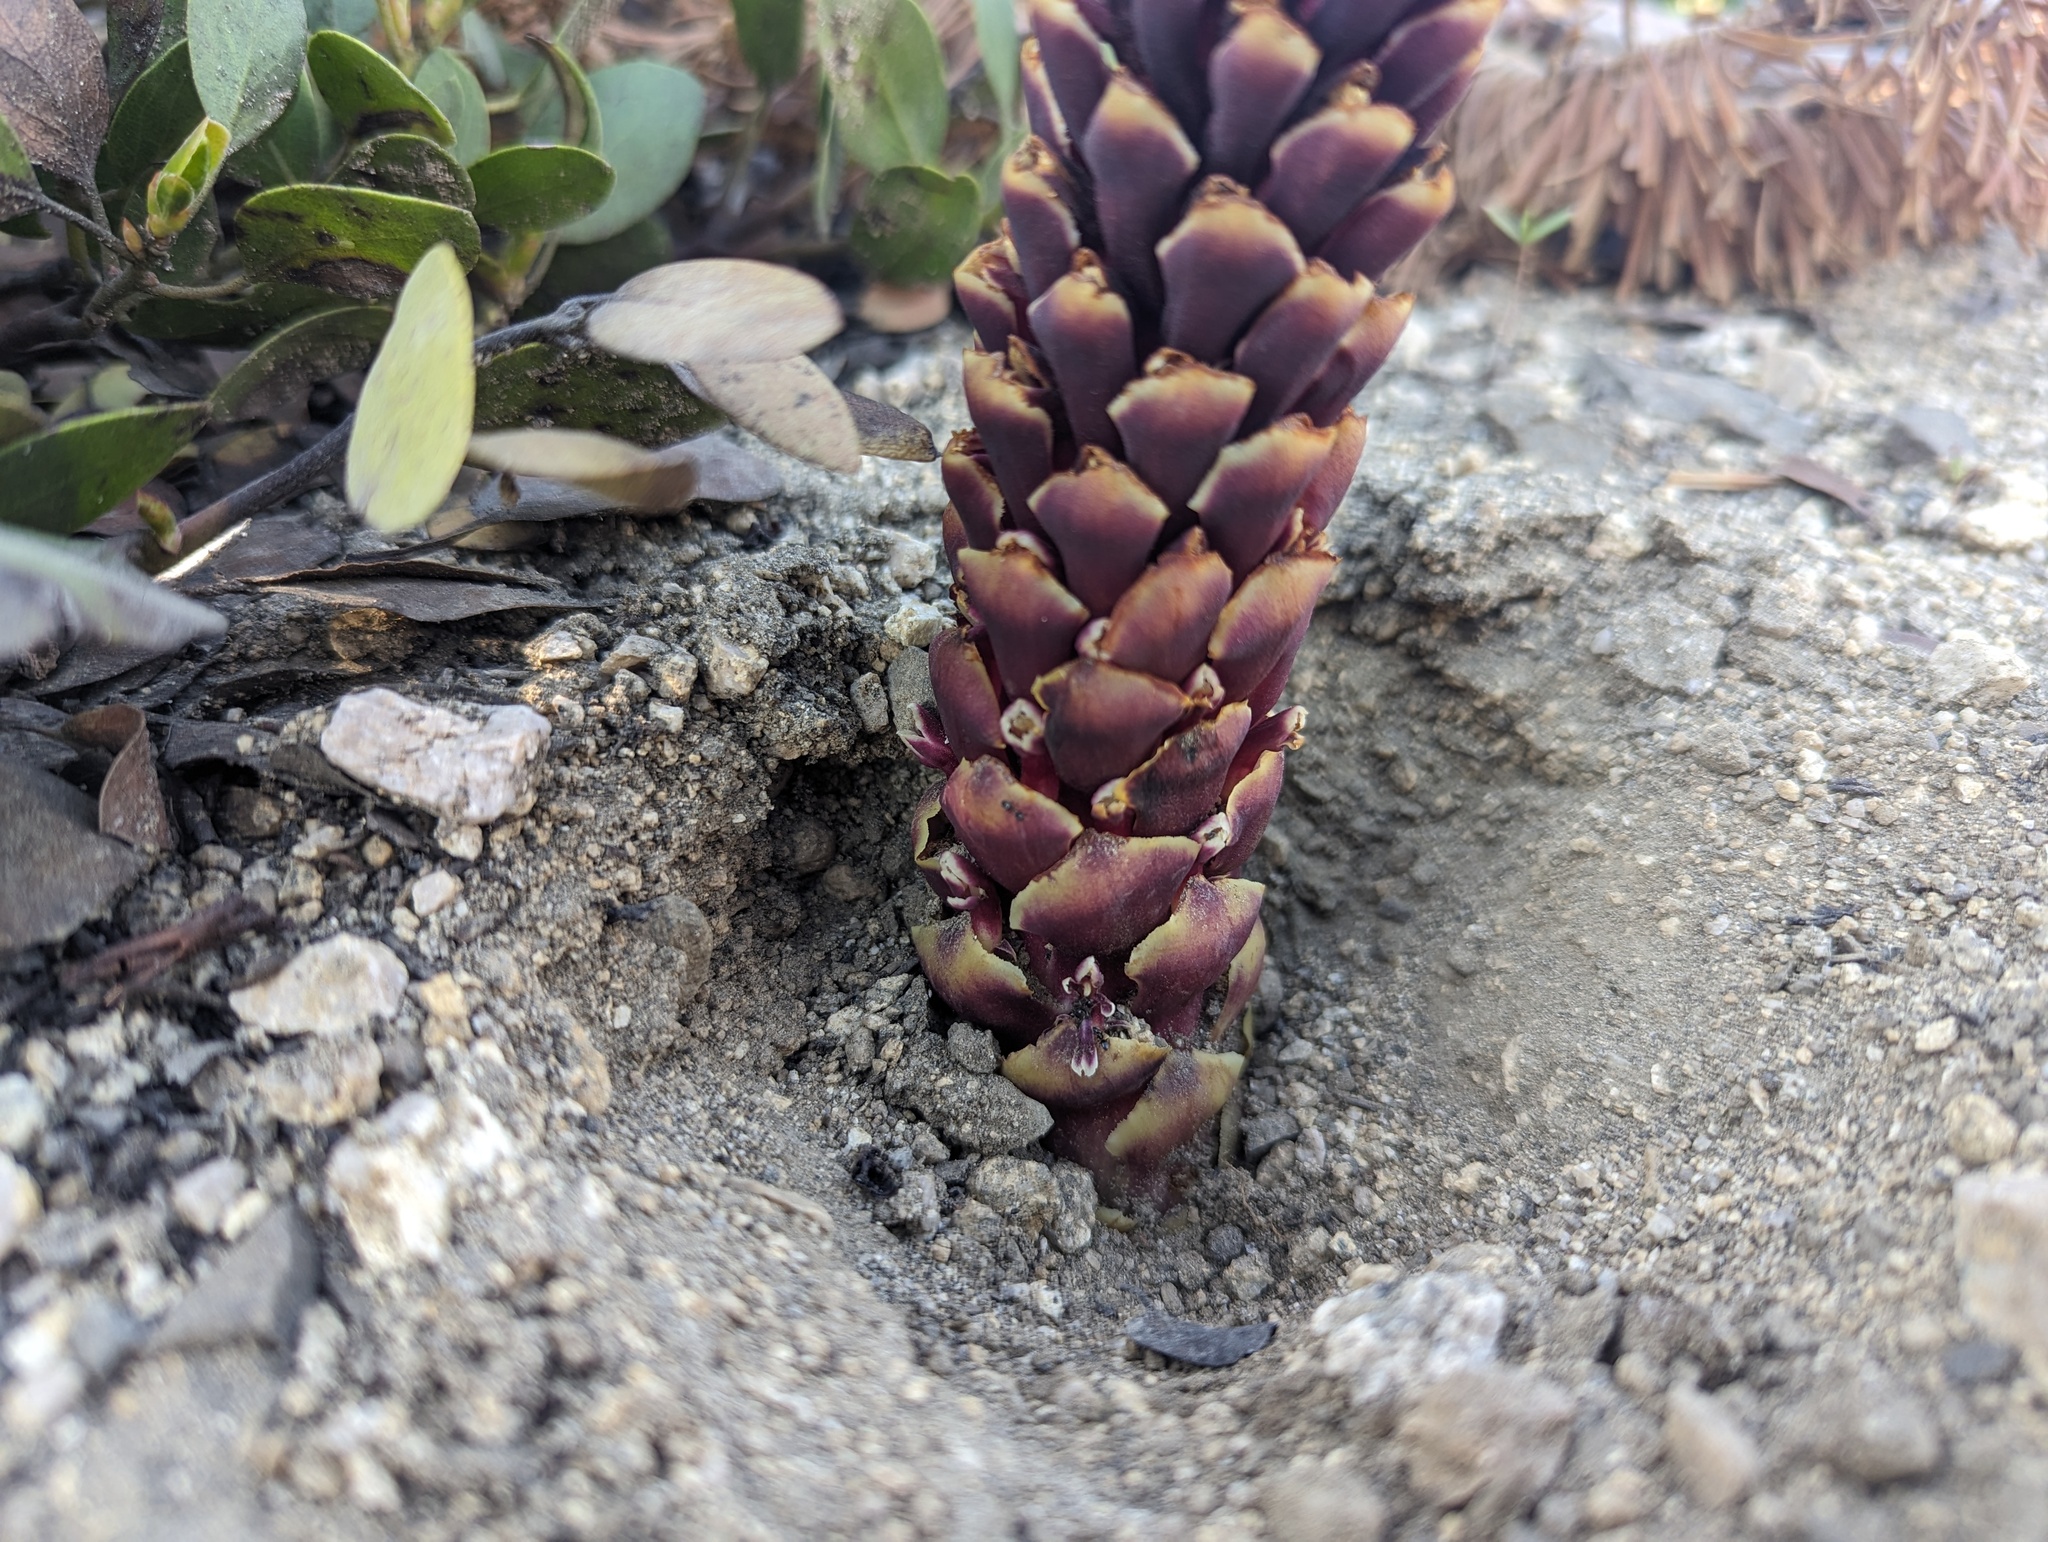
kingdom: Plantae
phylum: Tracheophyta
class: Magnoliopsida
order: Lamiales
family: Orobanchaceae
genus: Kopsiopsis
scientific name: Kopsiopsis strobilacea
